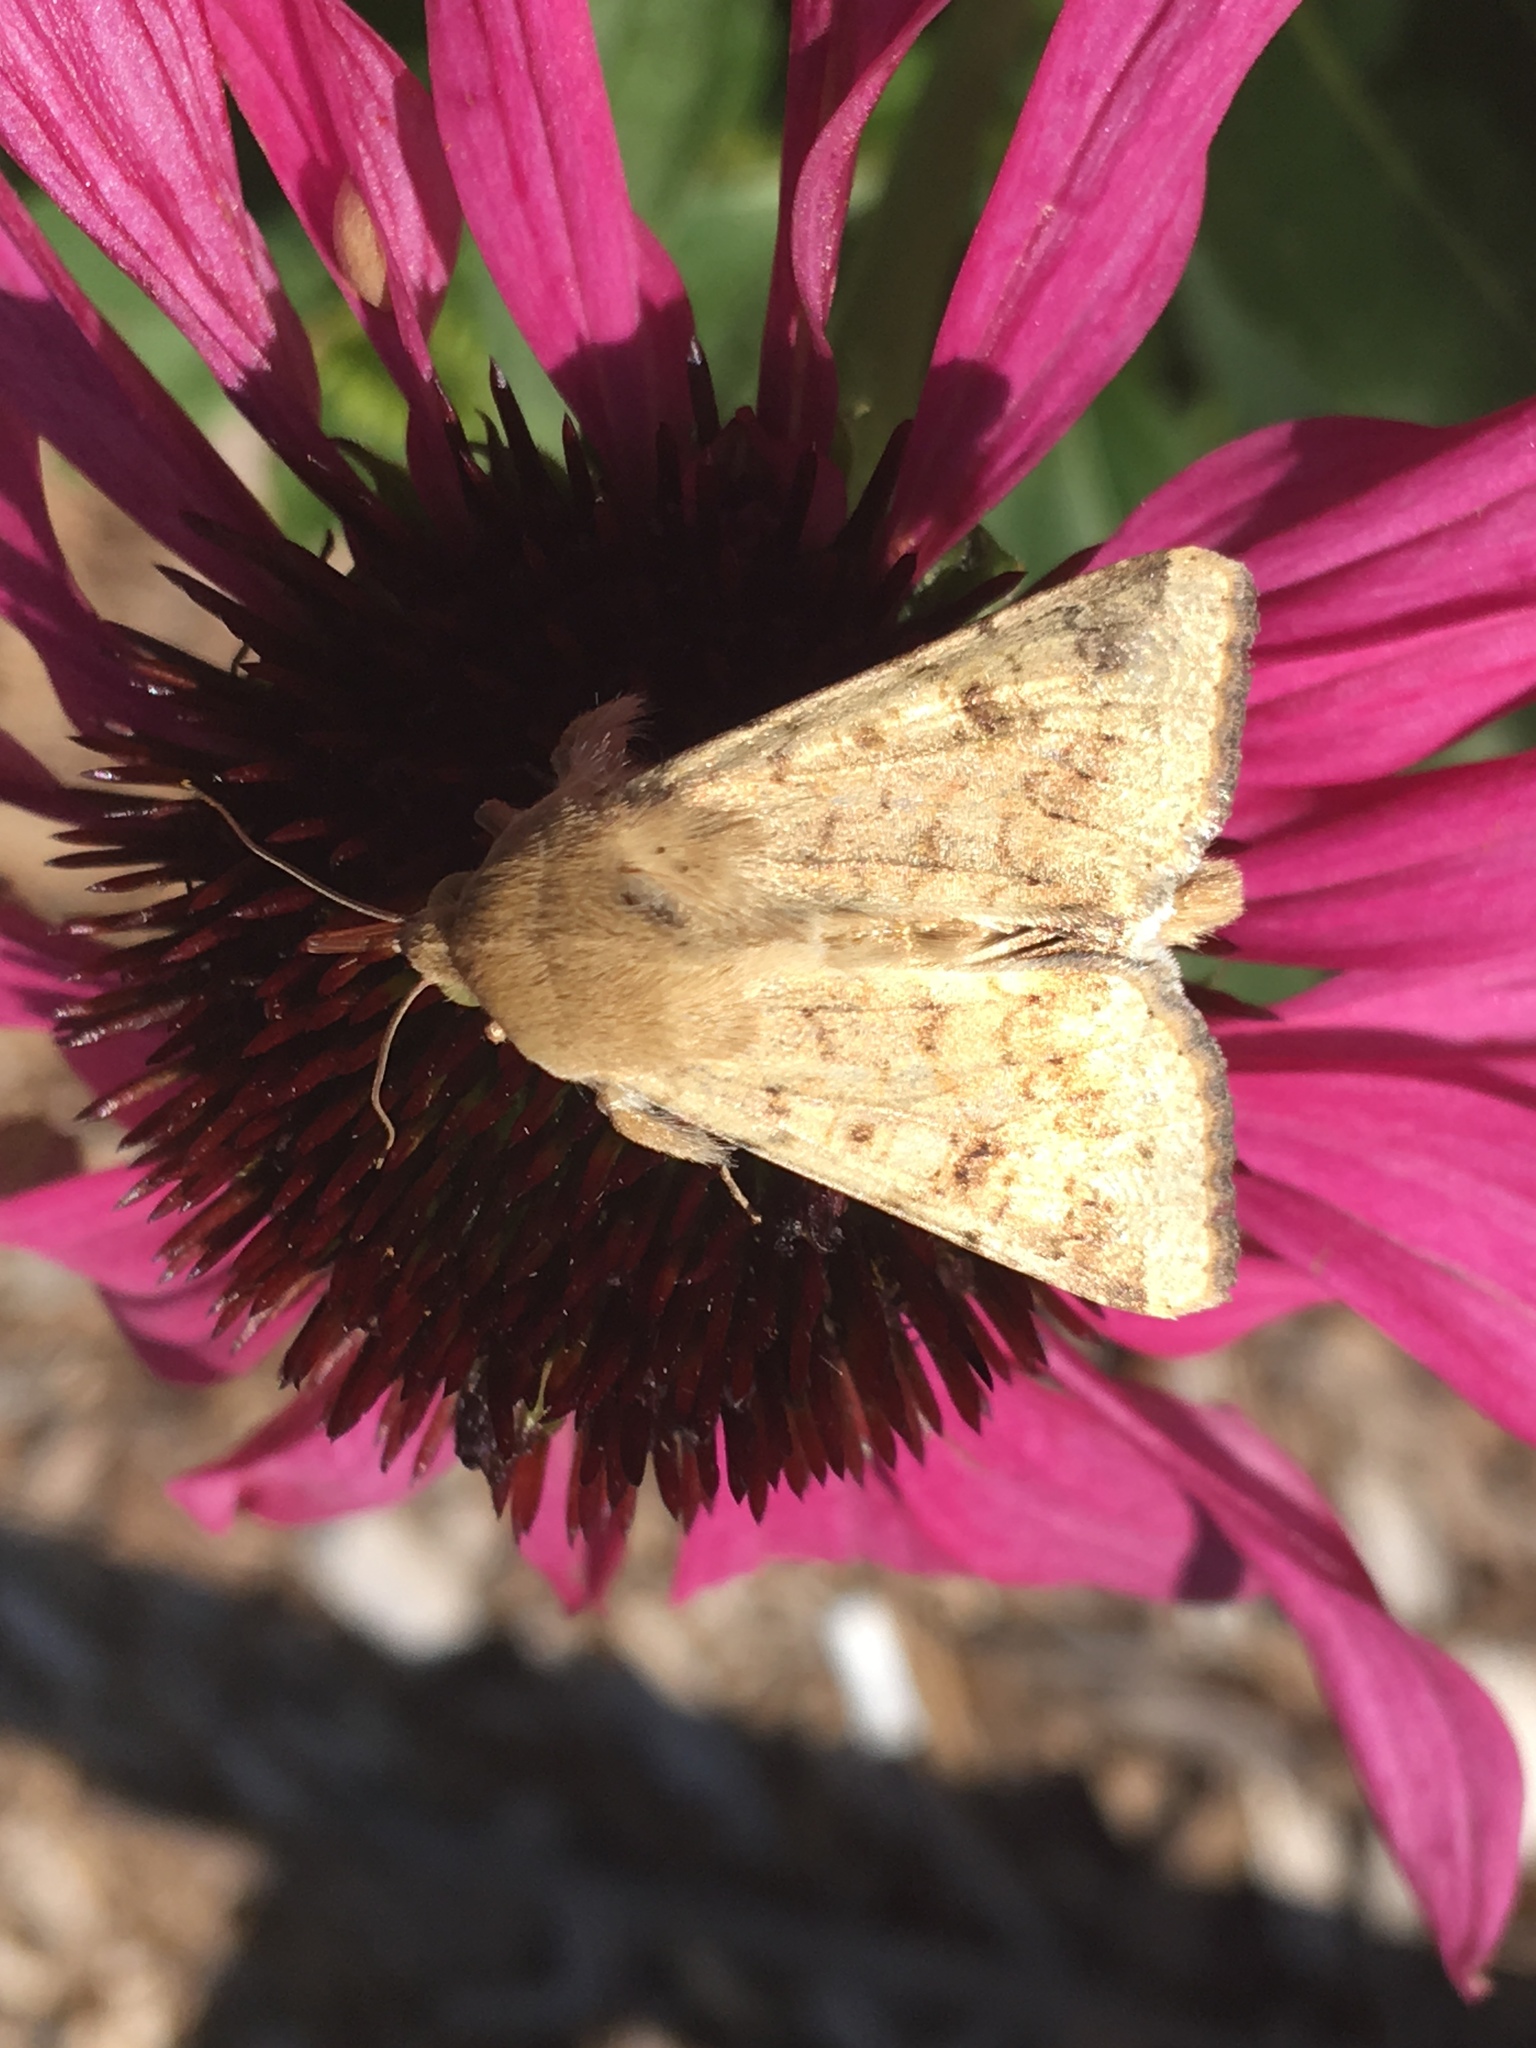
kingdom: Animalia
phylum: Arthropoda
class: Insecta
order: Lepidoptera
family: Noctuidae
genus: Helicoverpa
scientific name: Helicoverpa zea
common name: Bollworm
